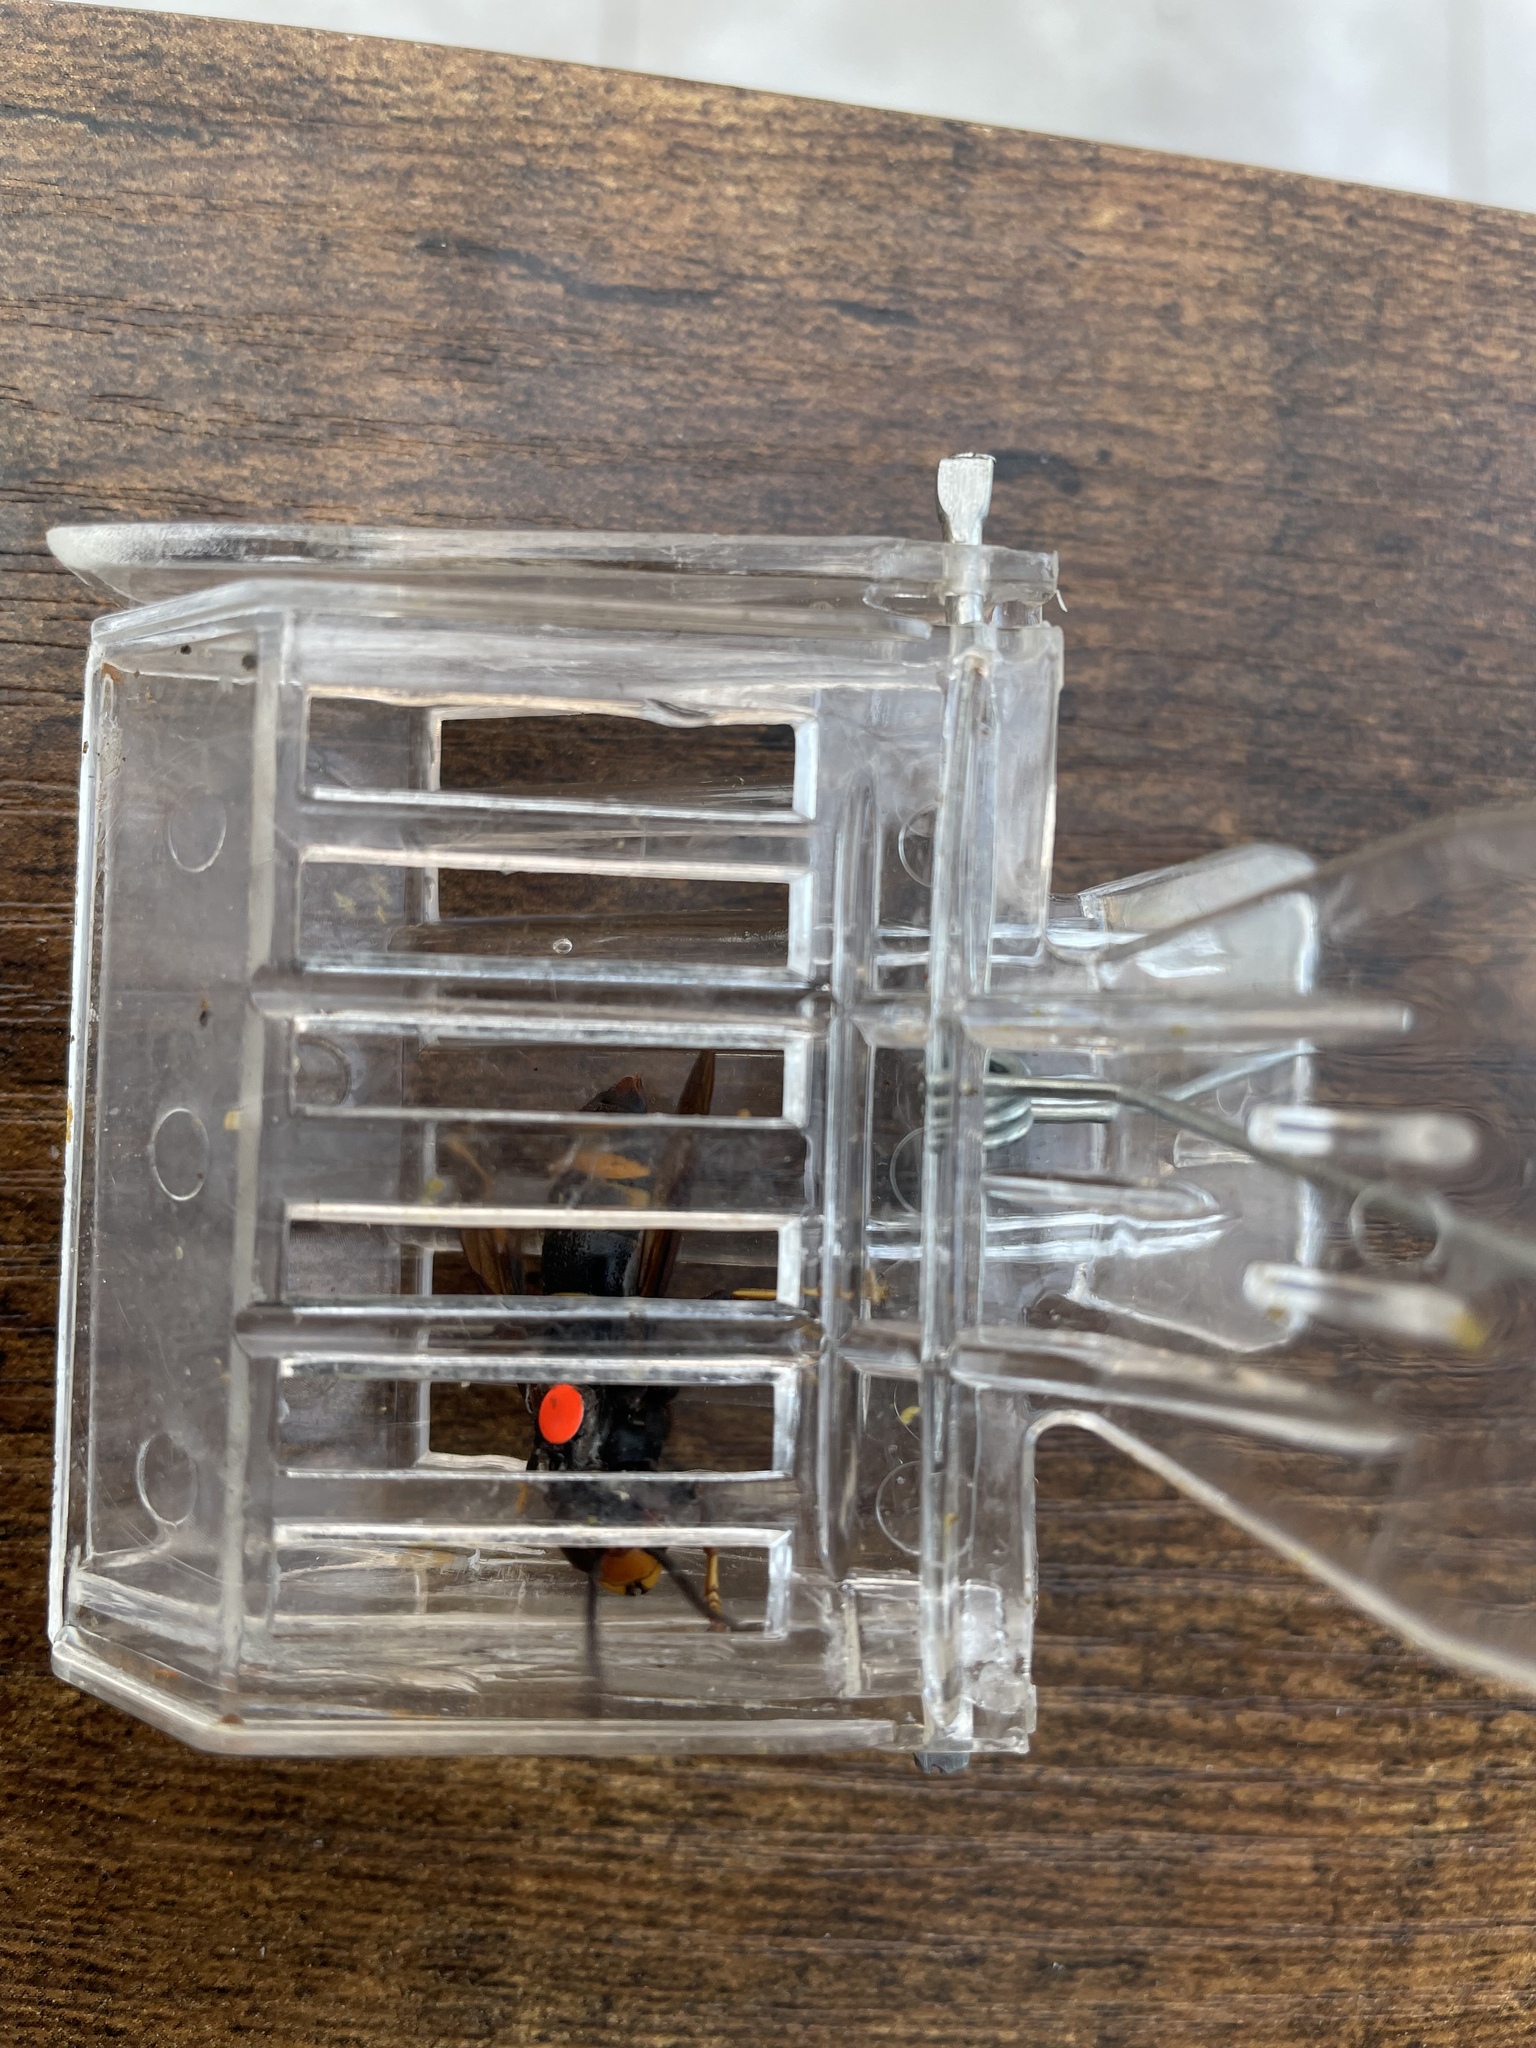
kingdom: Animalia
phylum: Arthropoda
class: Insecta
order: Hymenoptera
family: Vespidae
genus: Vespa
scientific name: Vespa velutina
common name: Asian hornet
